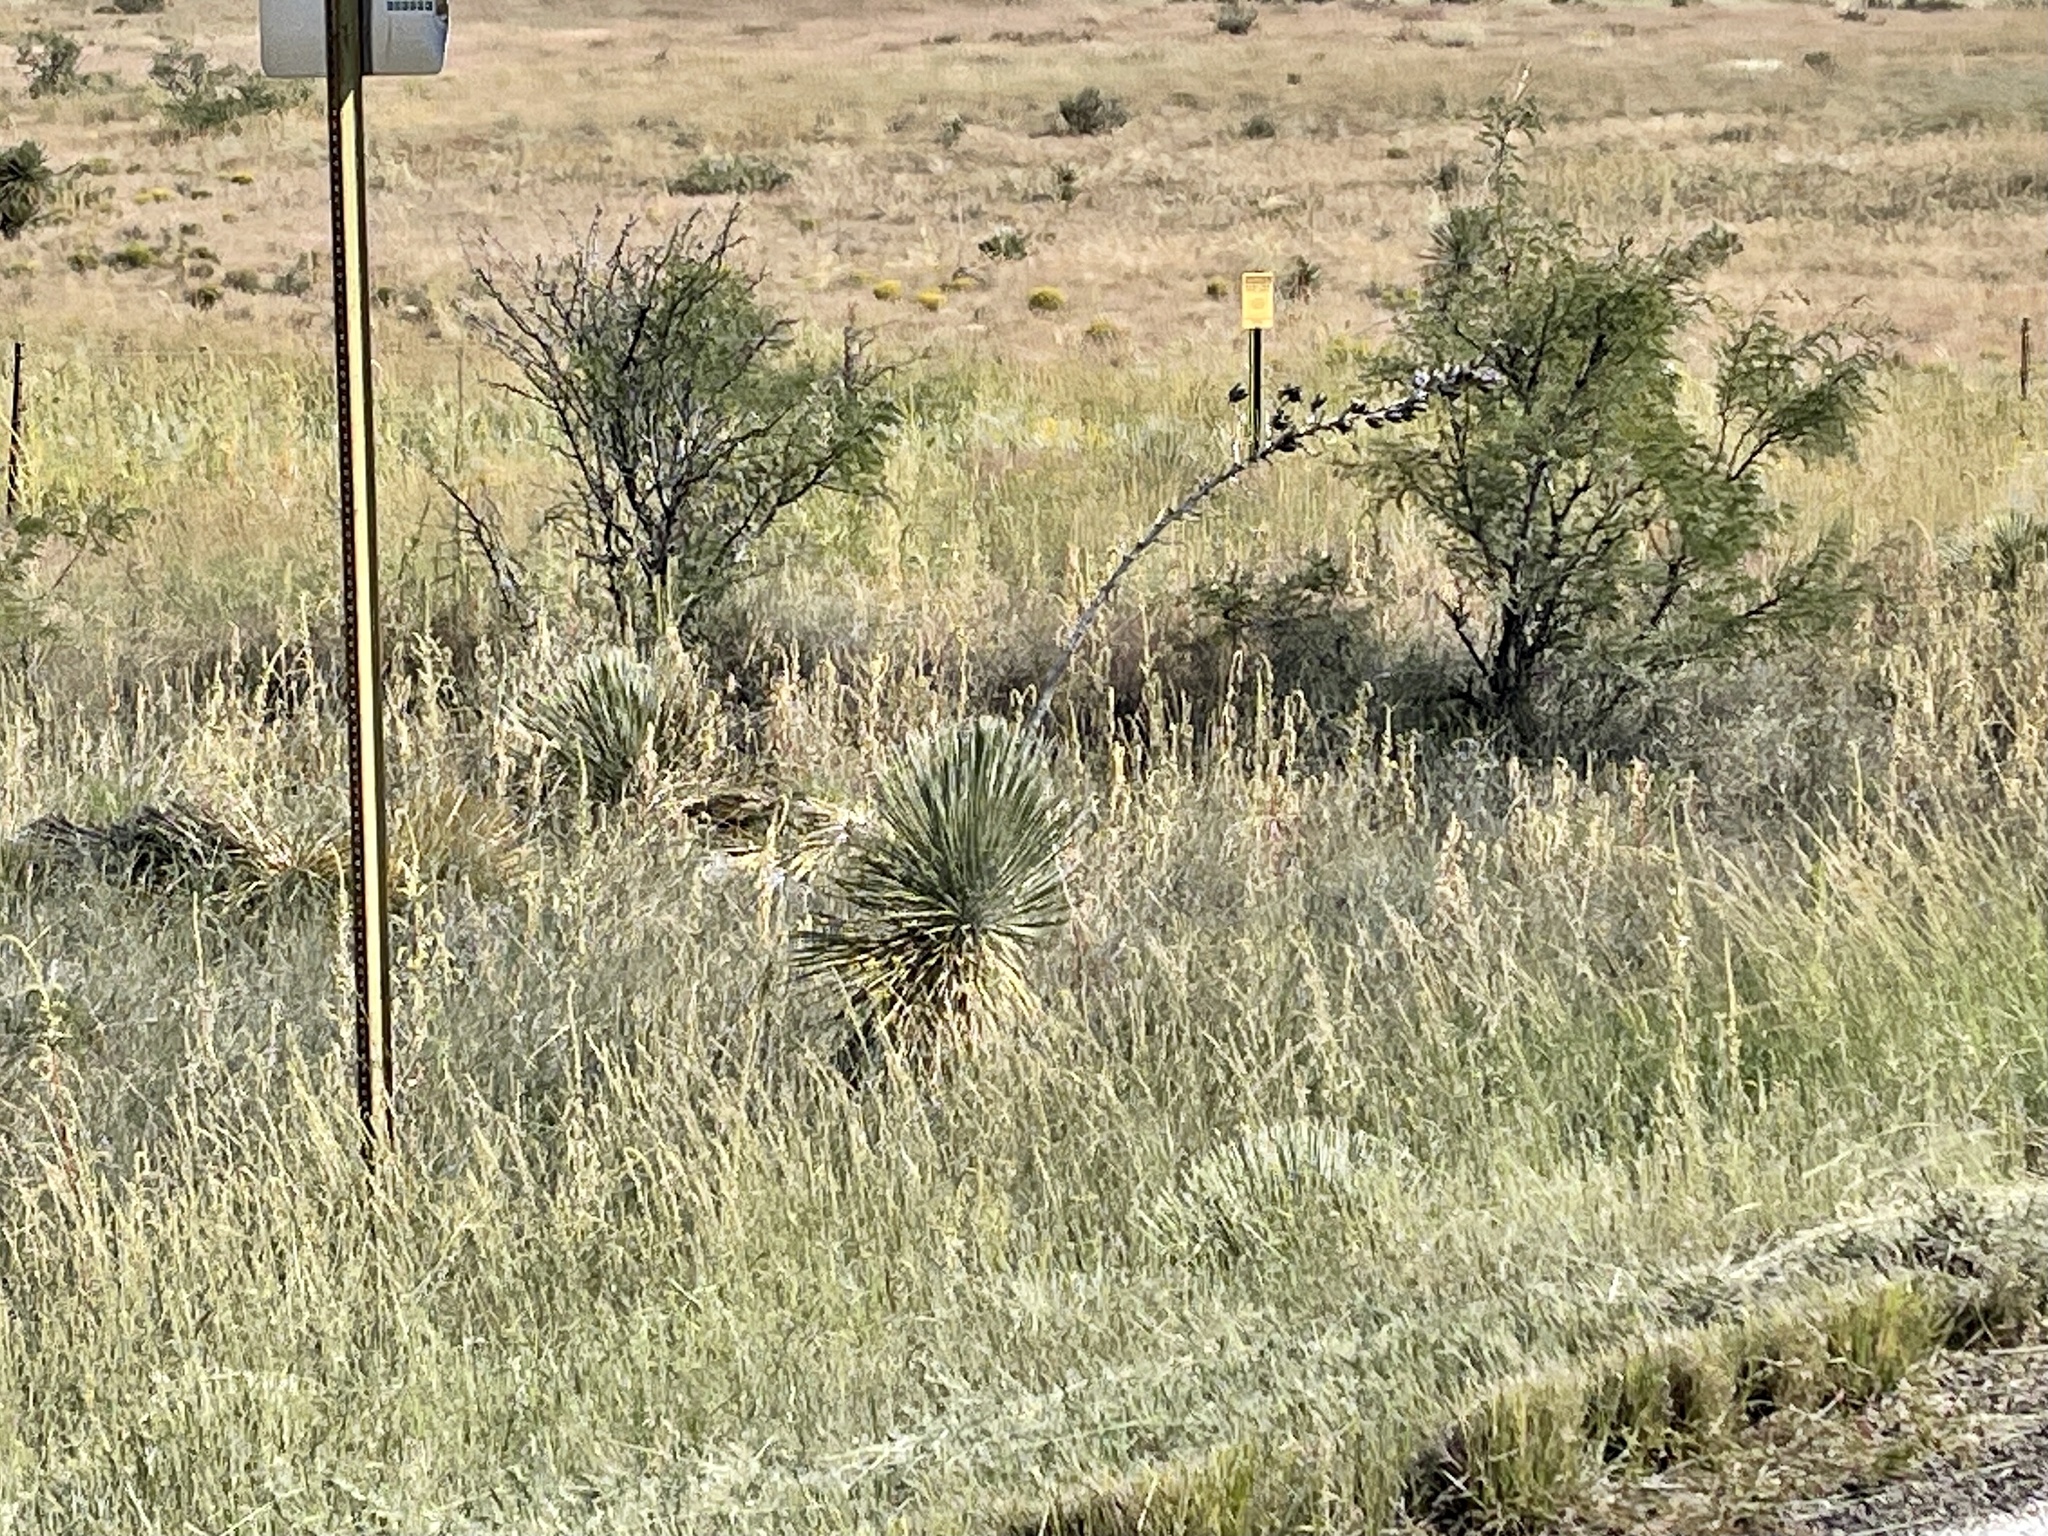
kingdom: Plantae
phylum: Tracheophyta
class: Liliopsida
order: Asparagales
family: Asparagaceae
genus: Yucca
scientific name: Yucca elata
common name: Palmella
